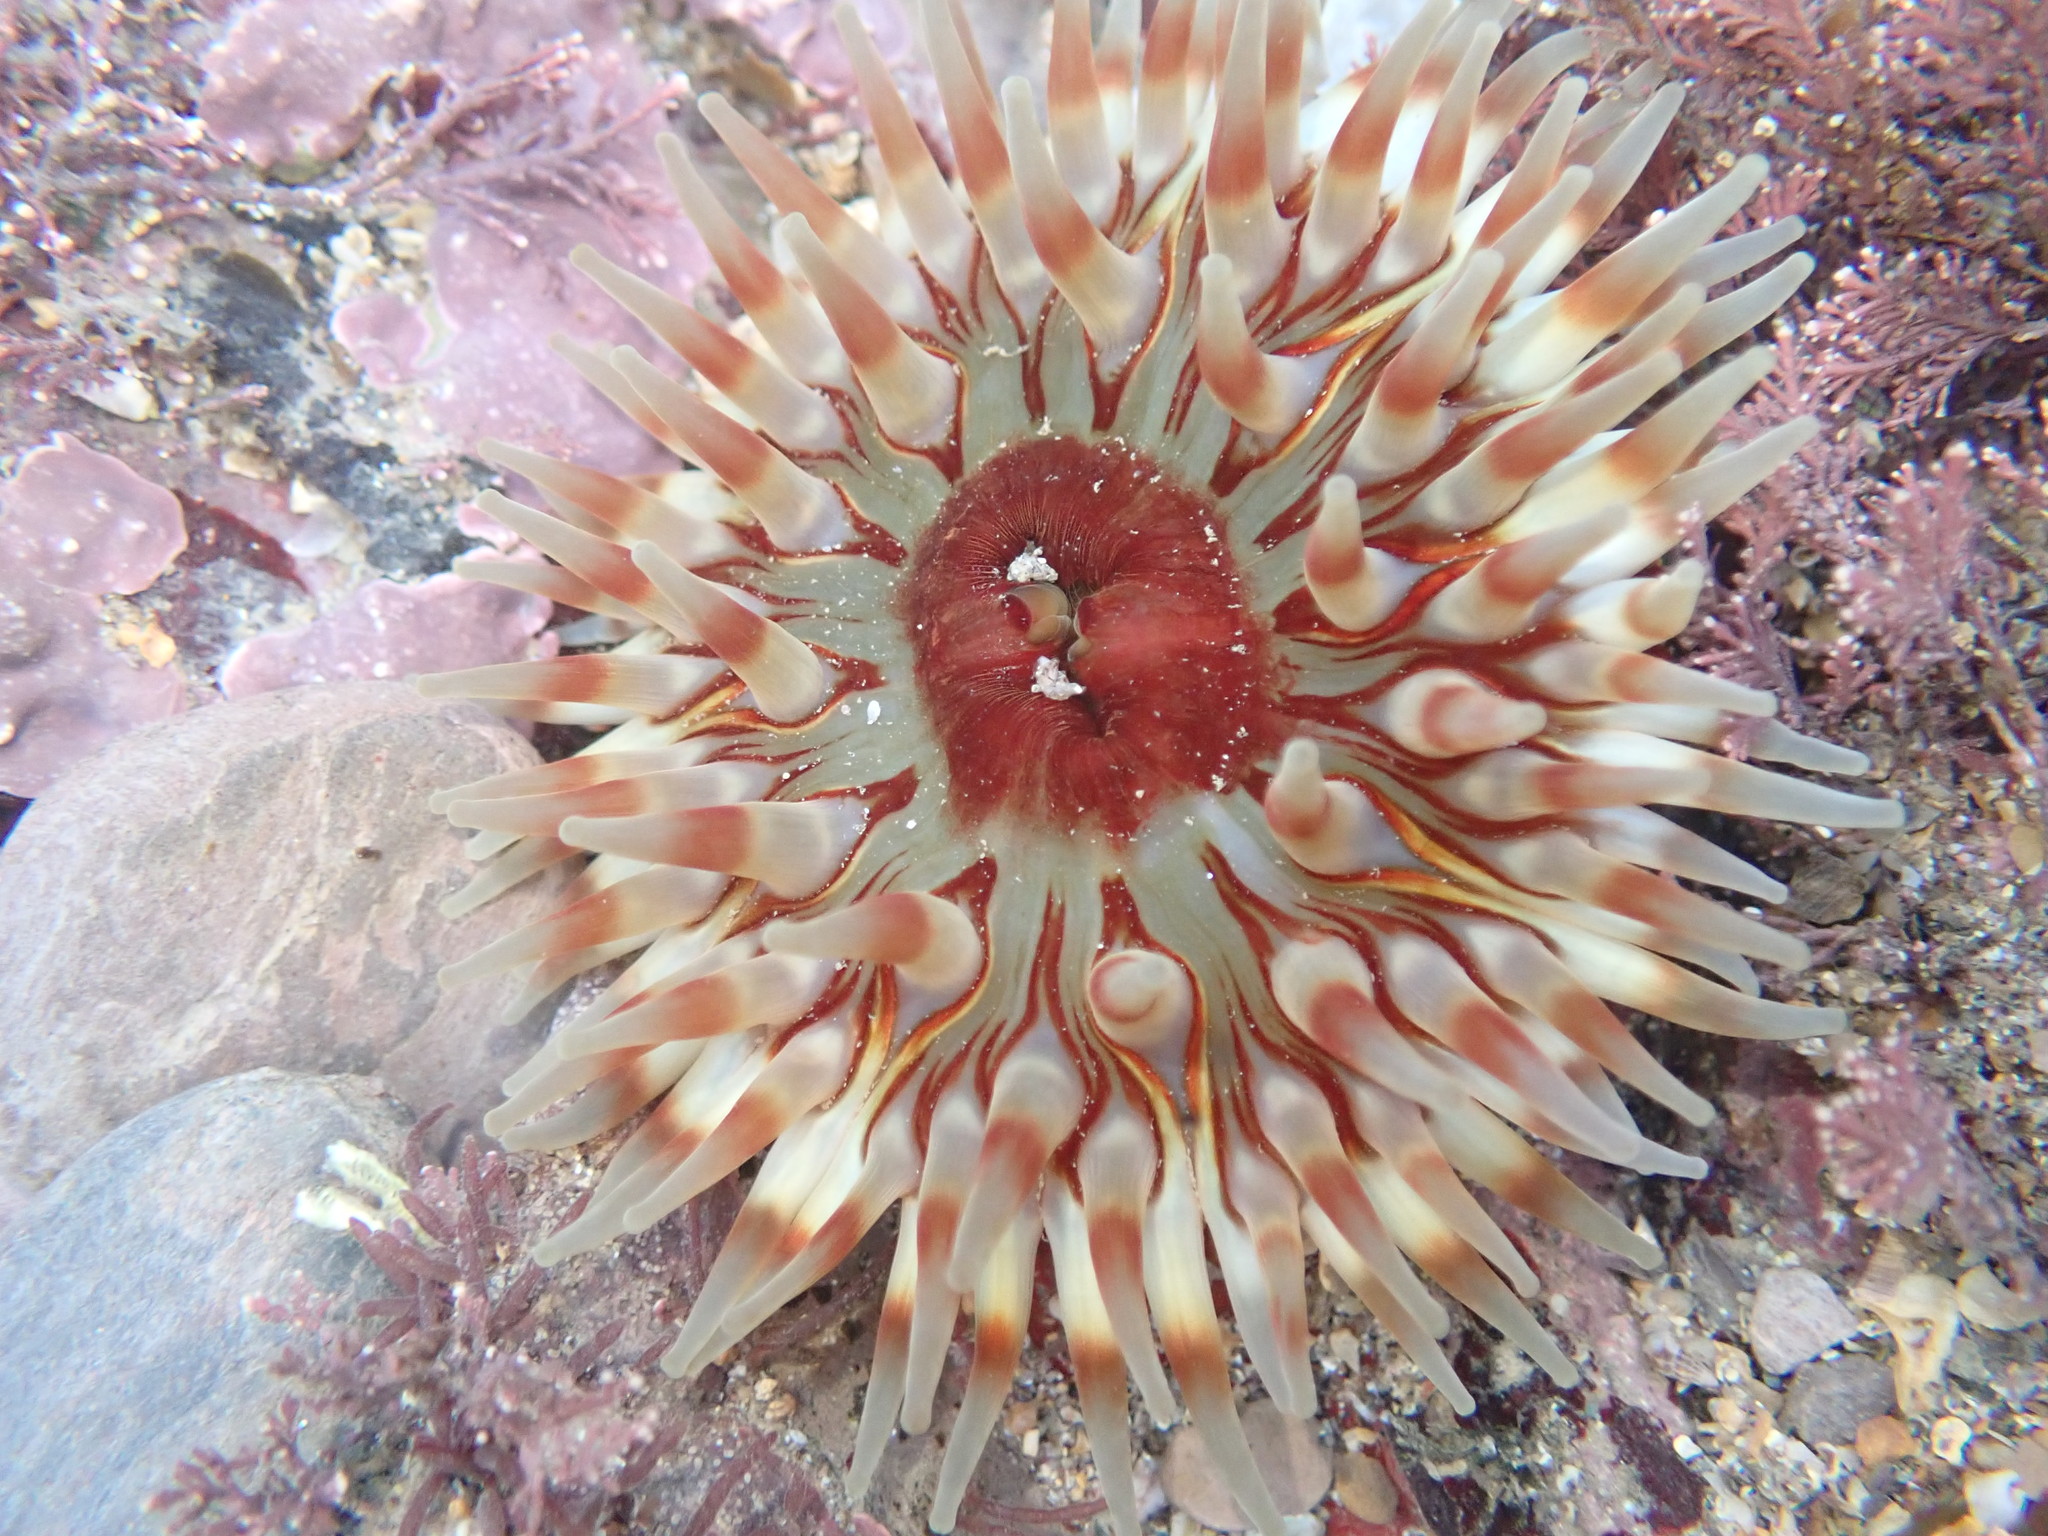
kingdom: Animalia
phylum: Cnidaria
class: Anthozoa
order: Actiniaria
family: Actiniidae
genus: Urticina
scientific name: Urticina felina
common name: Dahlia anemone
